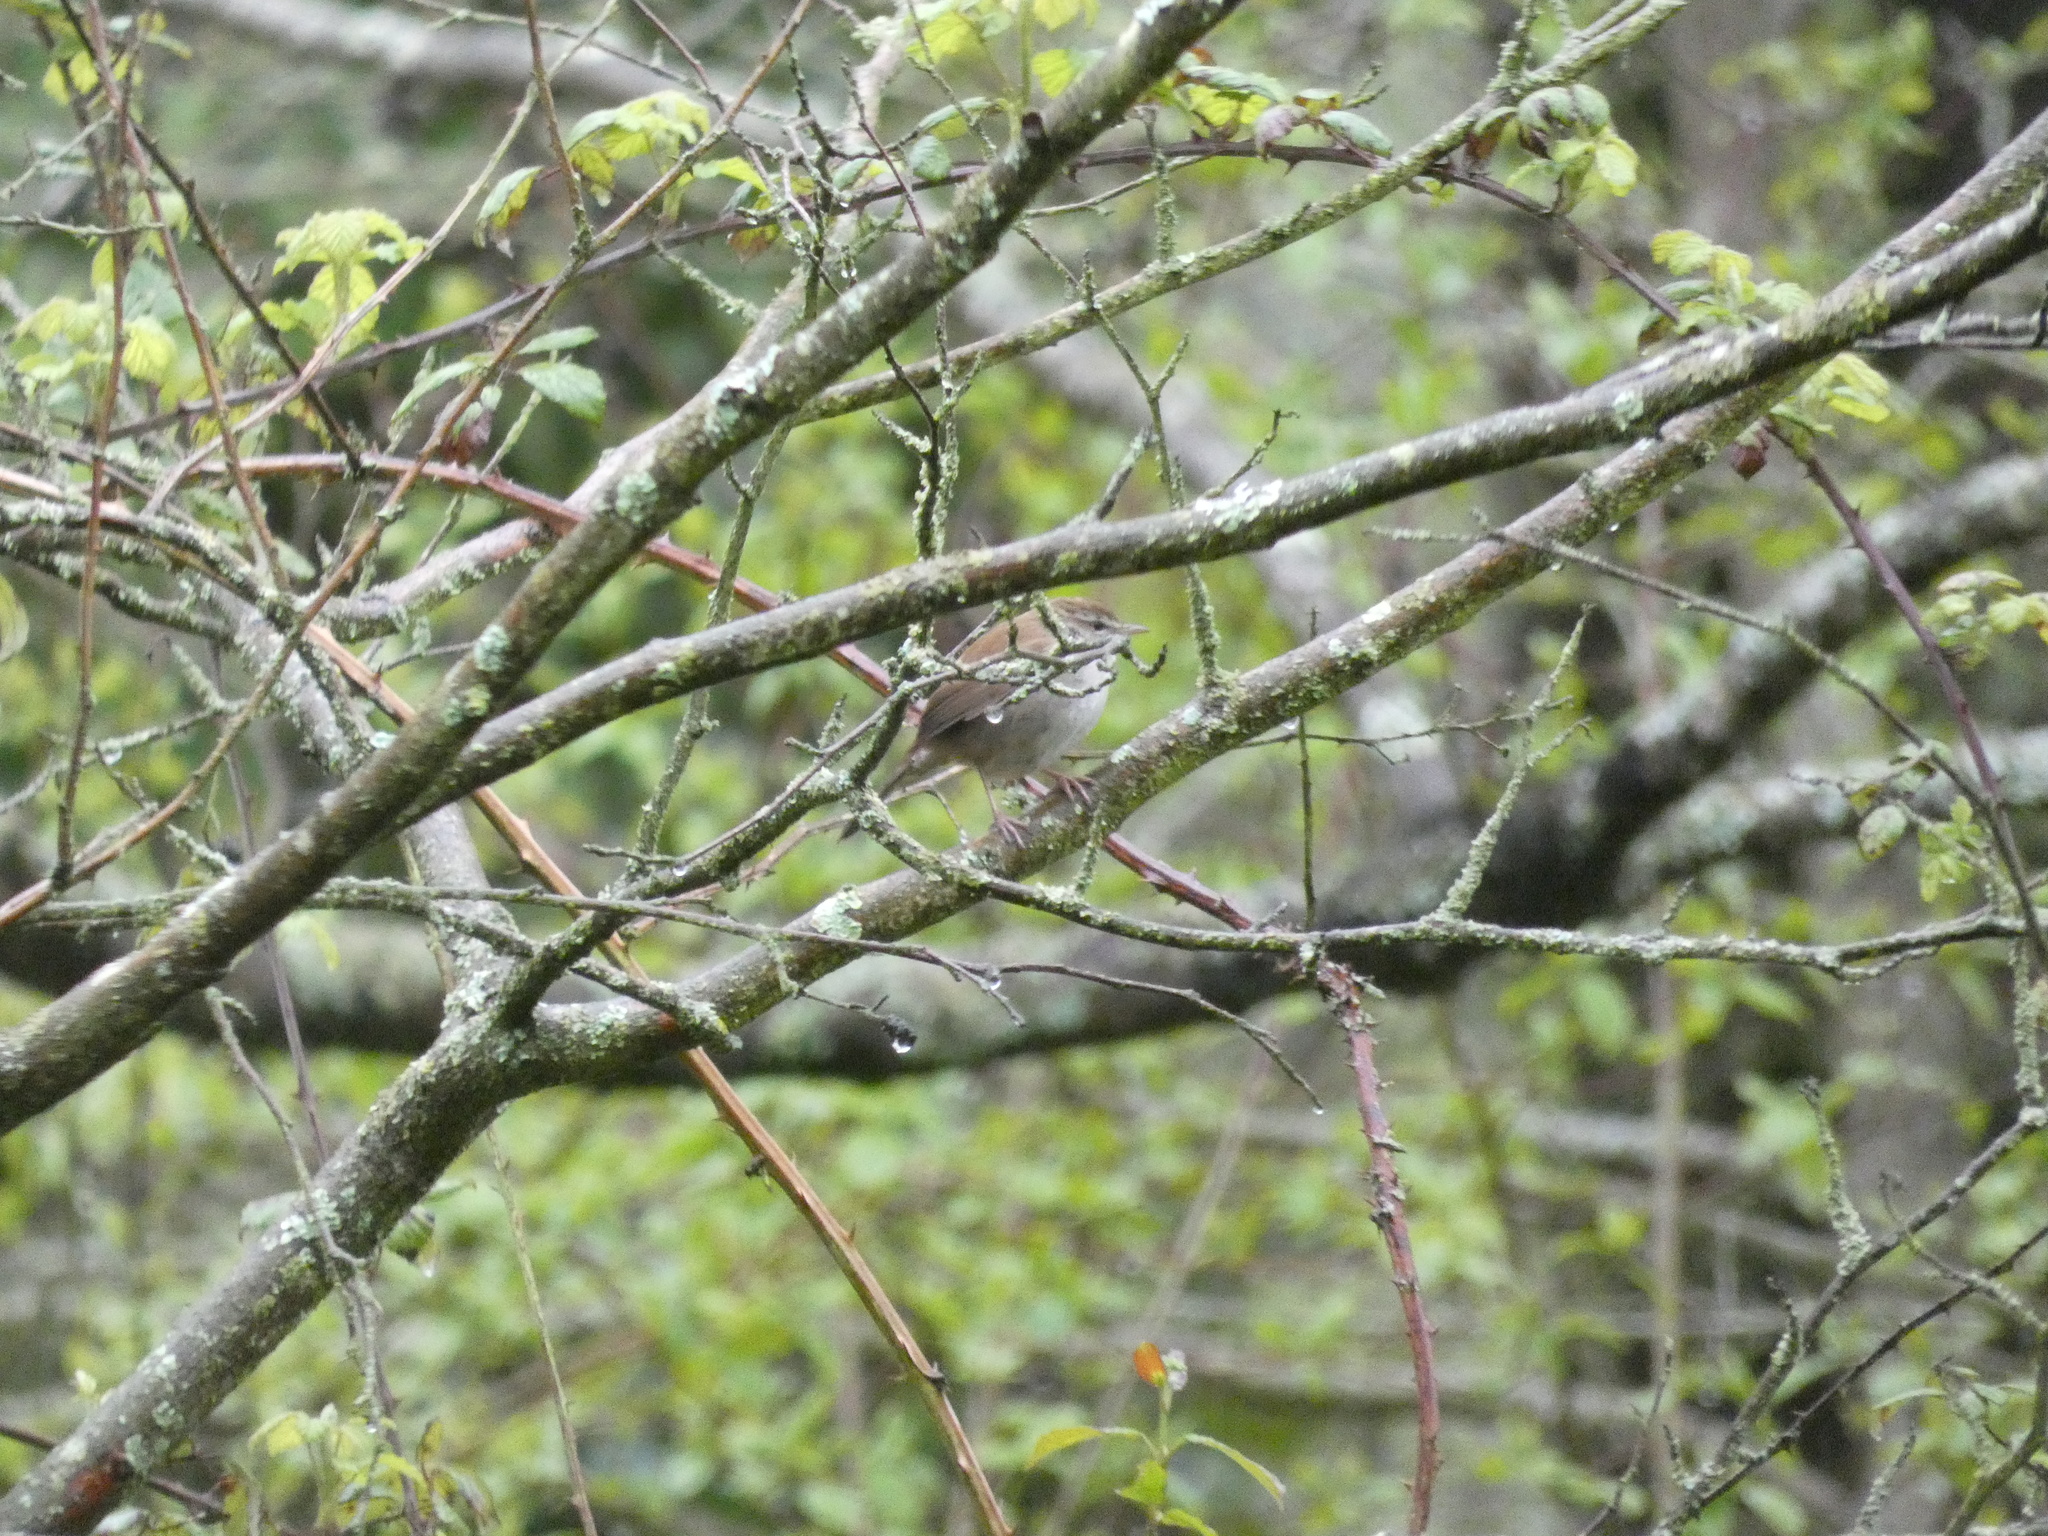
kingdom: Animalia
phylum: Chordata
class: Aves
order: Passeriformes
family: Cettiidae
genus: Cettia
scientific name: Cettia cetti
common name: Cetti's warbler
